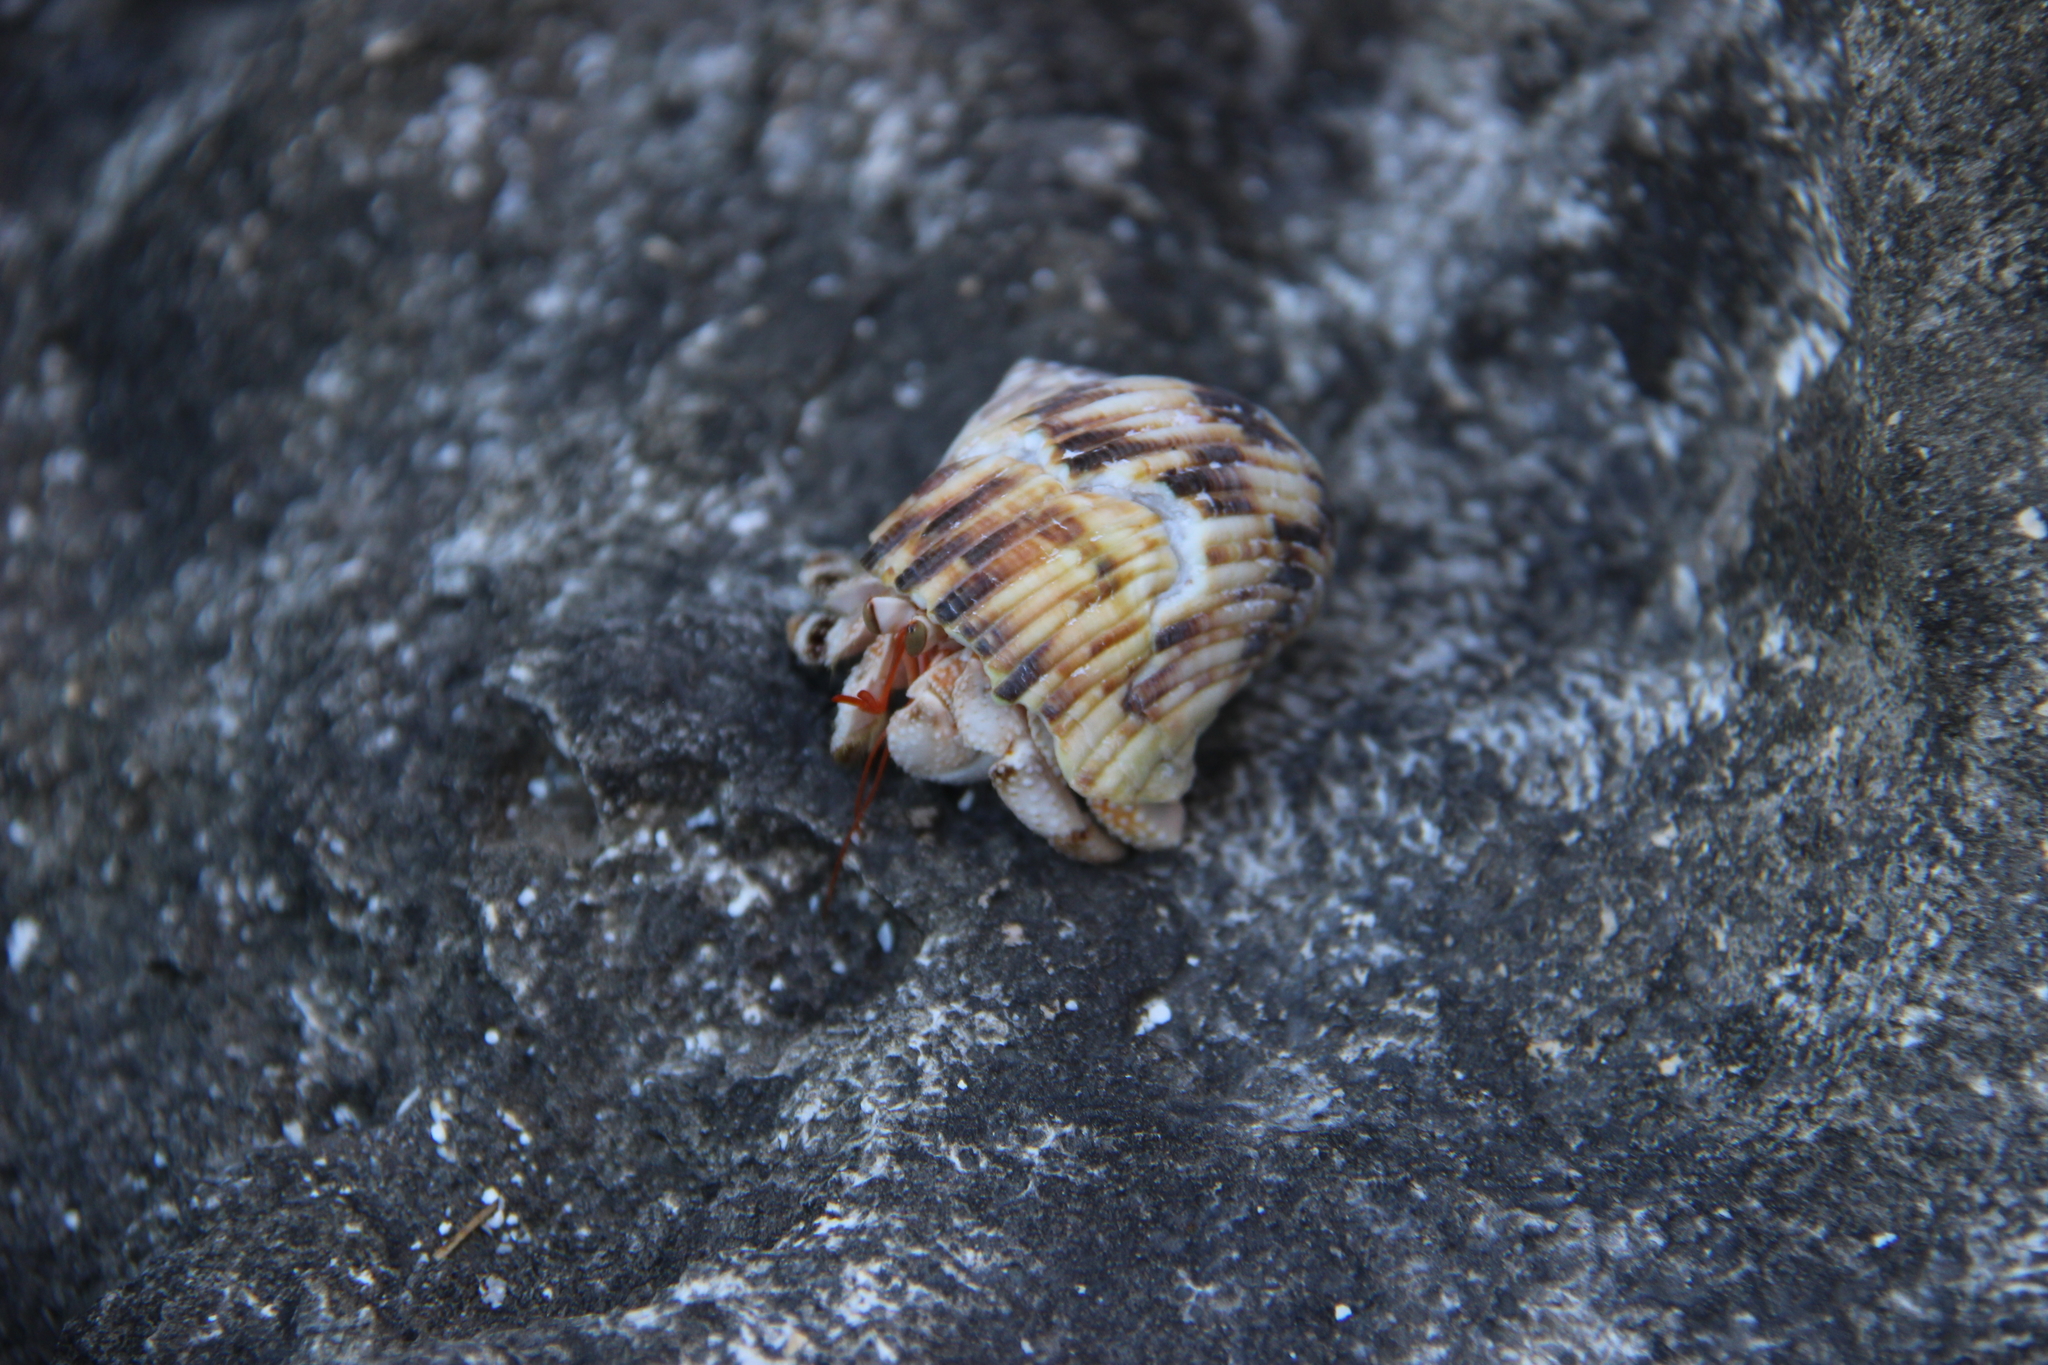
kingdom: Animalia
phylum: Arthropoda
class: Malacostraca
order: Decapoda
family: Coenobitidae
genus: Coenobita
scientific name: Coenobita carnescens
